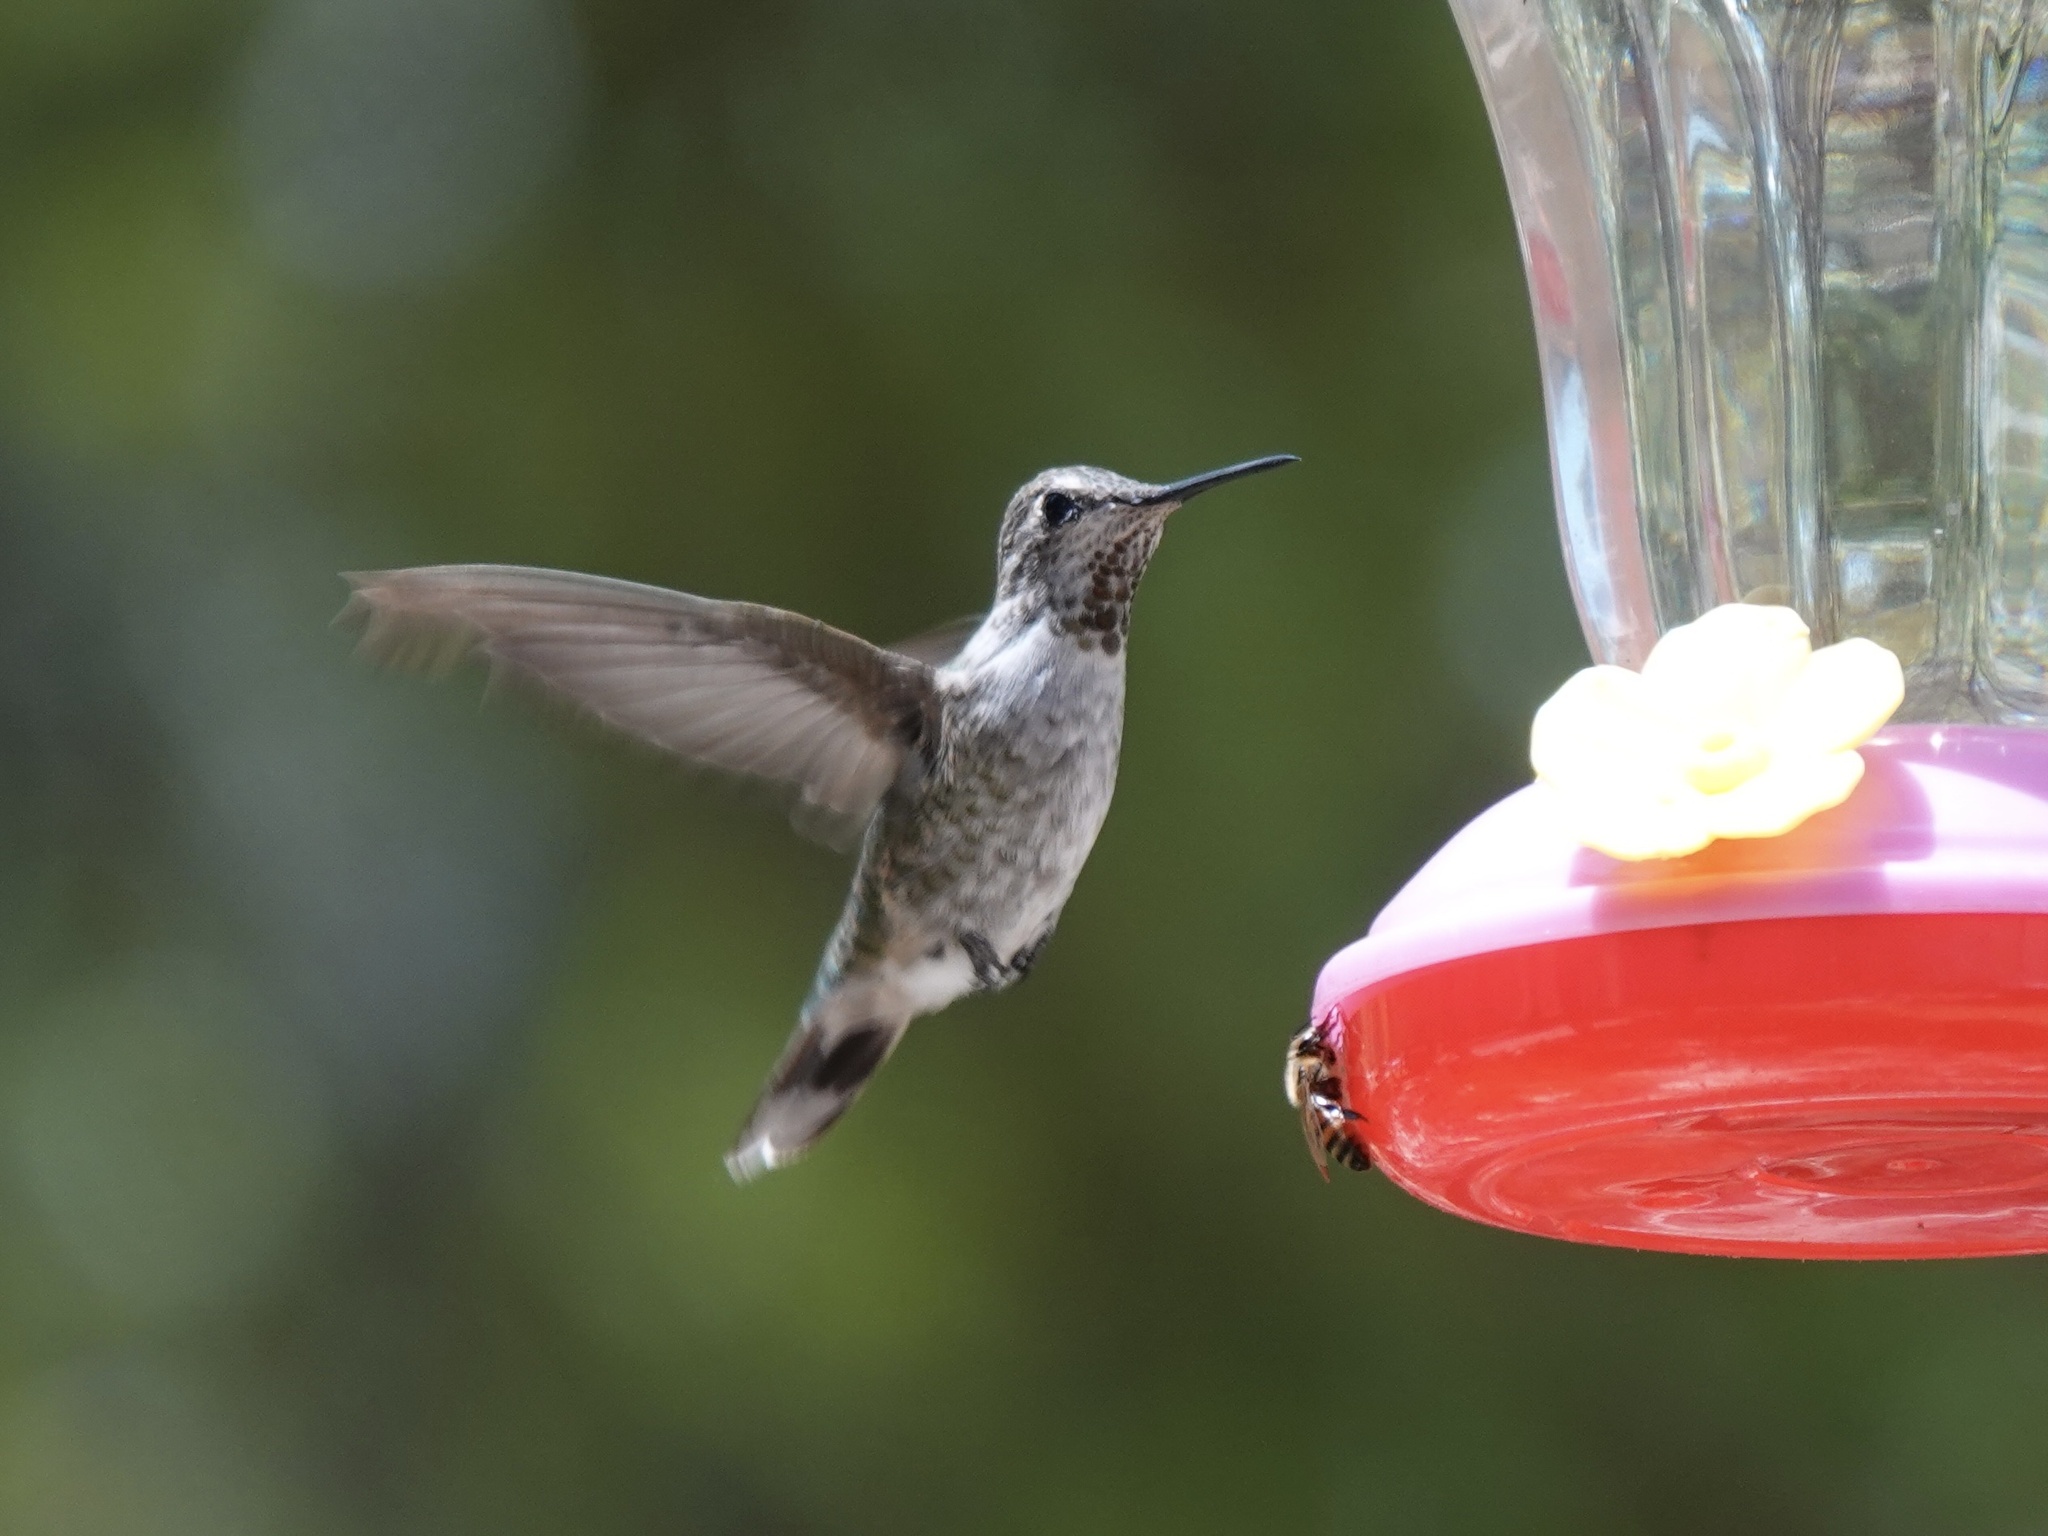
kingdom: Animalia
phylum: Chordata
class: Aves
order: Apodiformes
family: Trochilidae
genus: Calypte
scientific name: Calypte anna
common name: Anna's hummingbird
